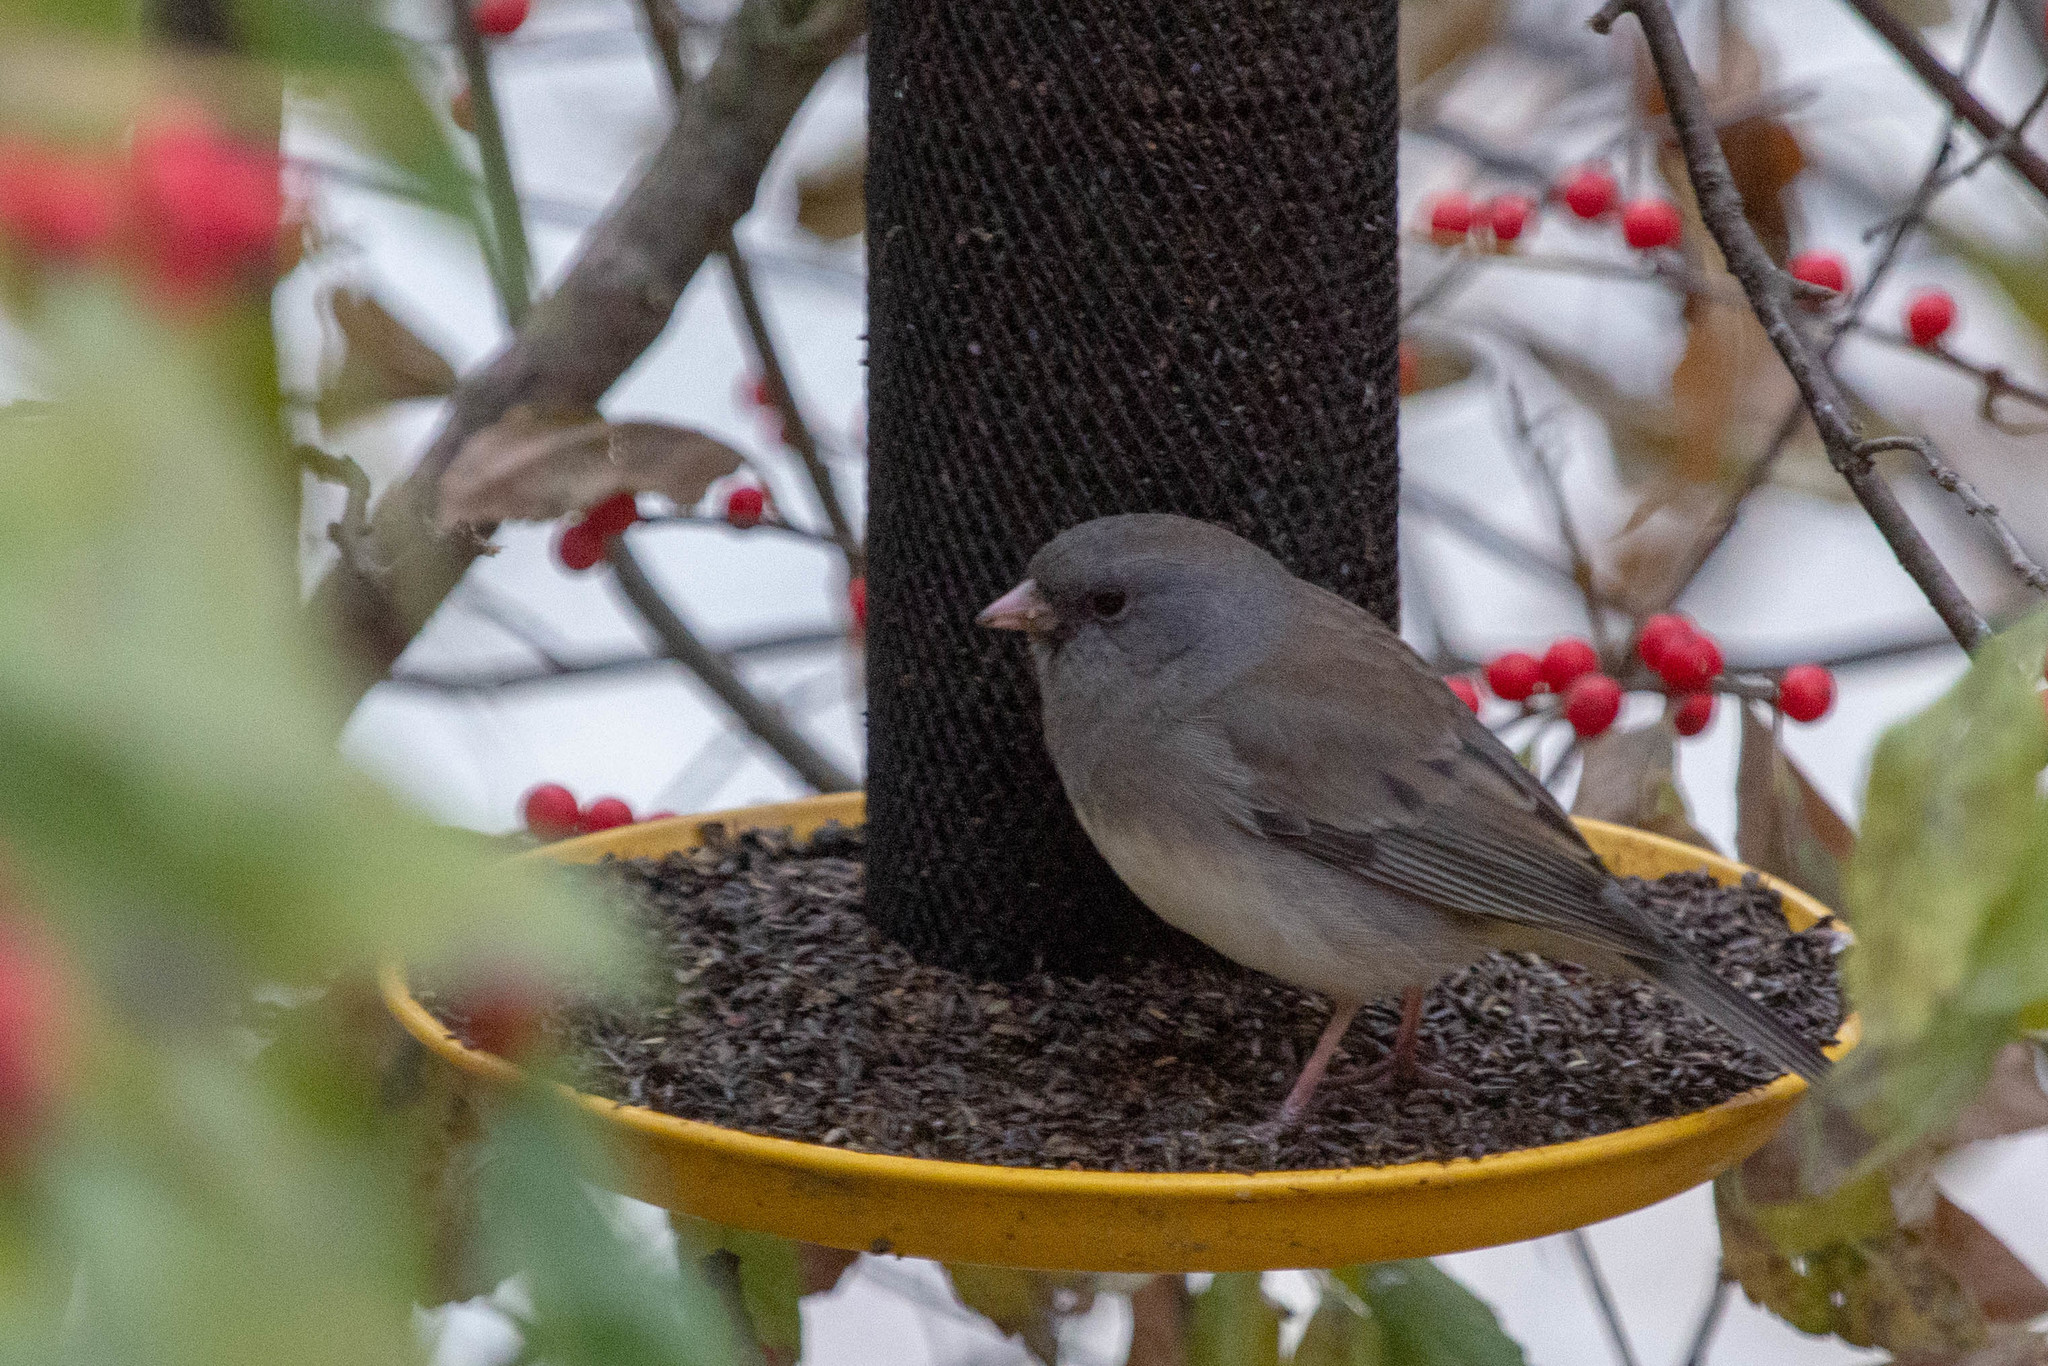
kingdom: Animalia
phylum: Chordata
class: Aves
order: Passeriformes
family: Passerellidae
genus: Junco
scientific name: Junco hyemalis
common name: Dark-eyed junco
